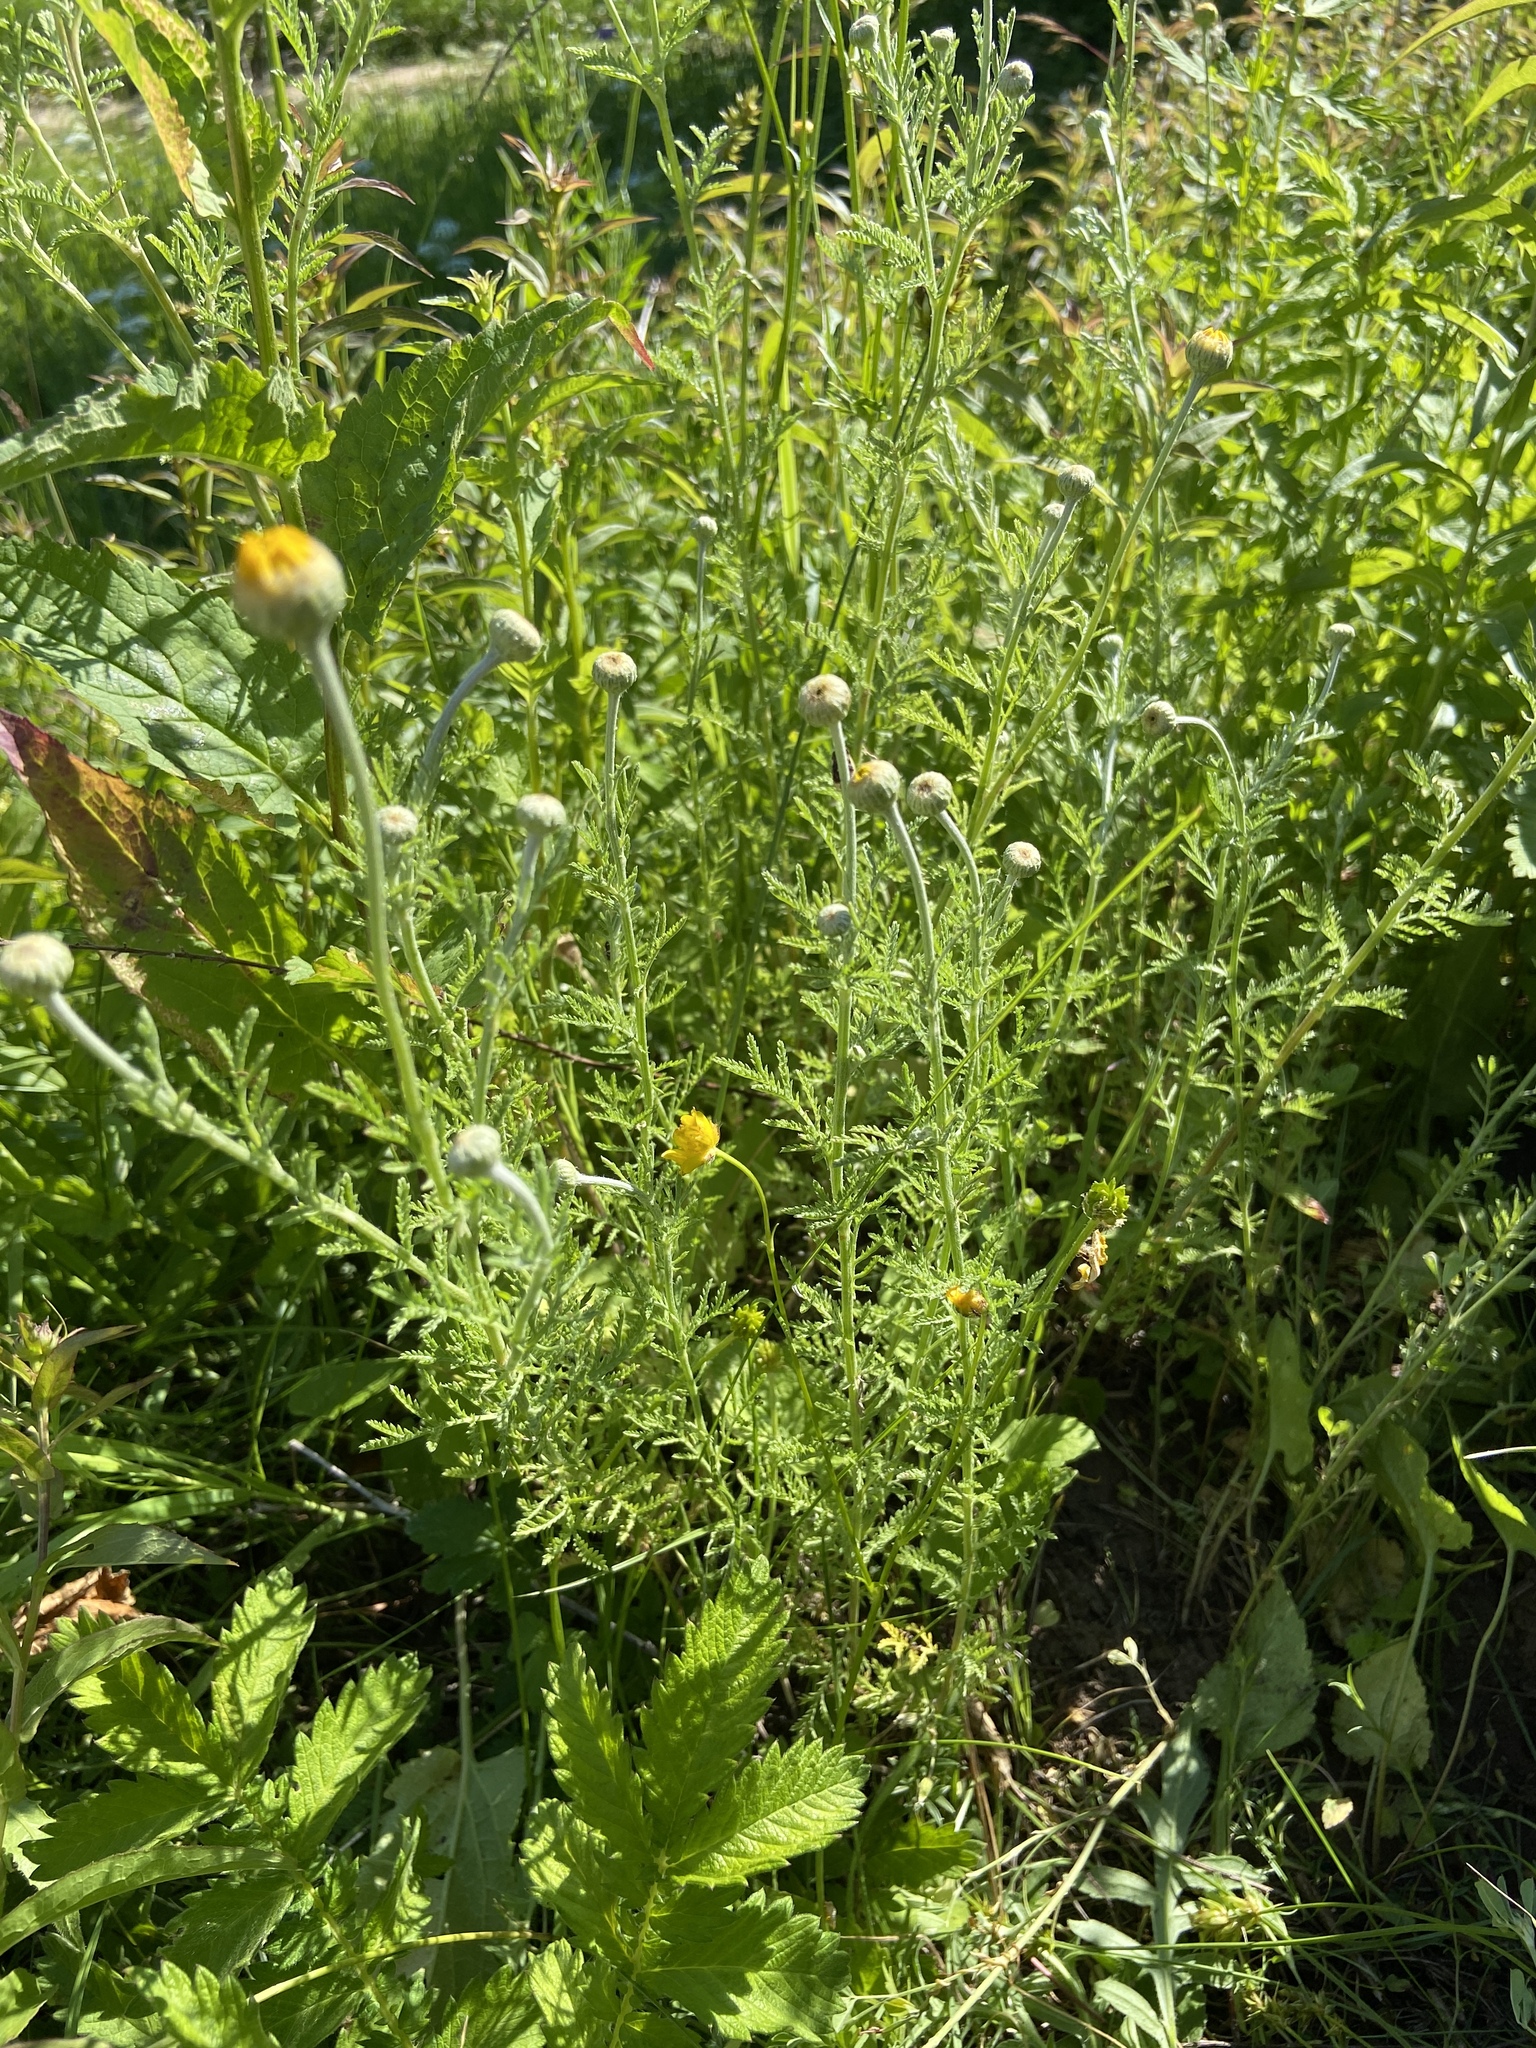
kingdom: Plantae
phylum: Tracheophyta
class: Magnoliopsida
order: Asterales
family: Asteraceae
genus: Cota
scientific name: Cota tinctoria
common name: Golden chamomile
